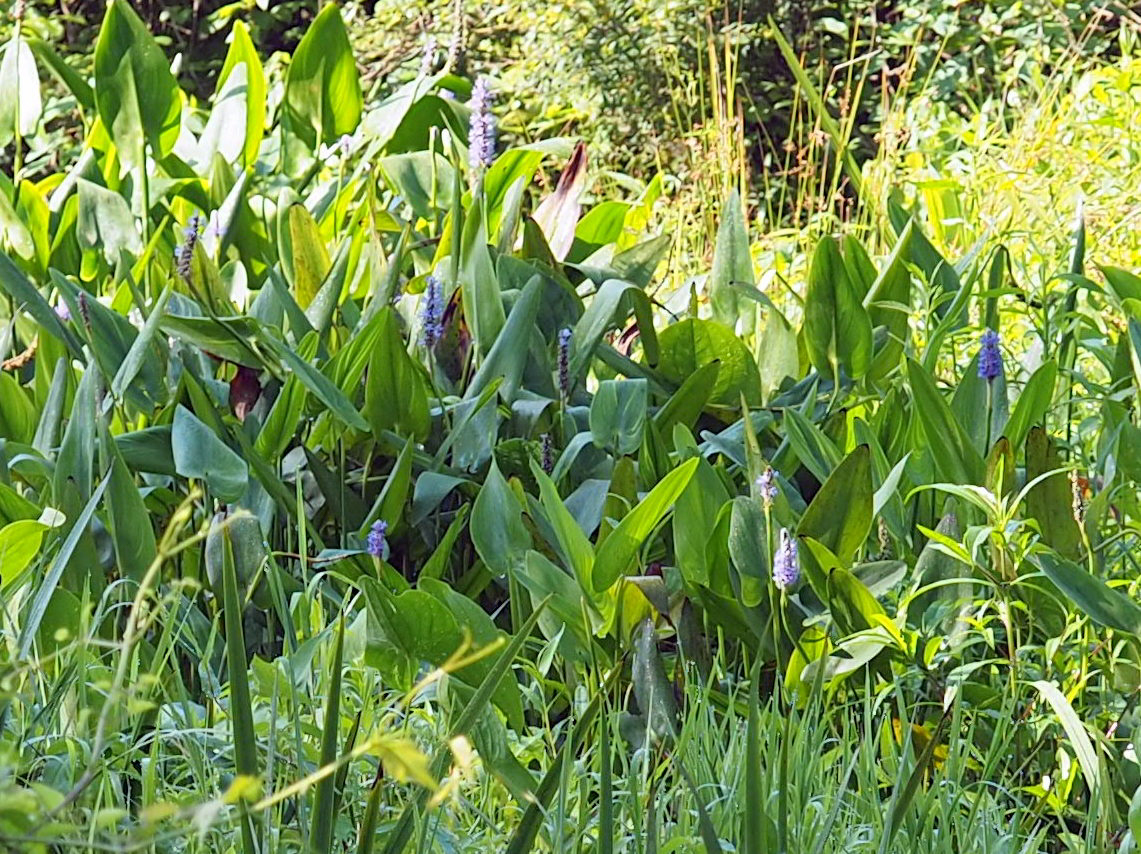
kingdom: Plantae
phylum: Tracheophyta
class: Liliopsida
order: Commelinales
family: Pontederiaceae
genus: Pontederia
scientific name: Pontederia cordata
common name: Pickerelweed
